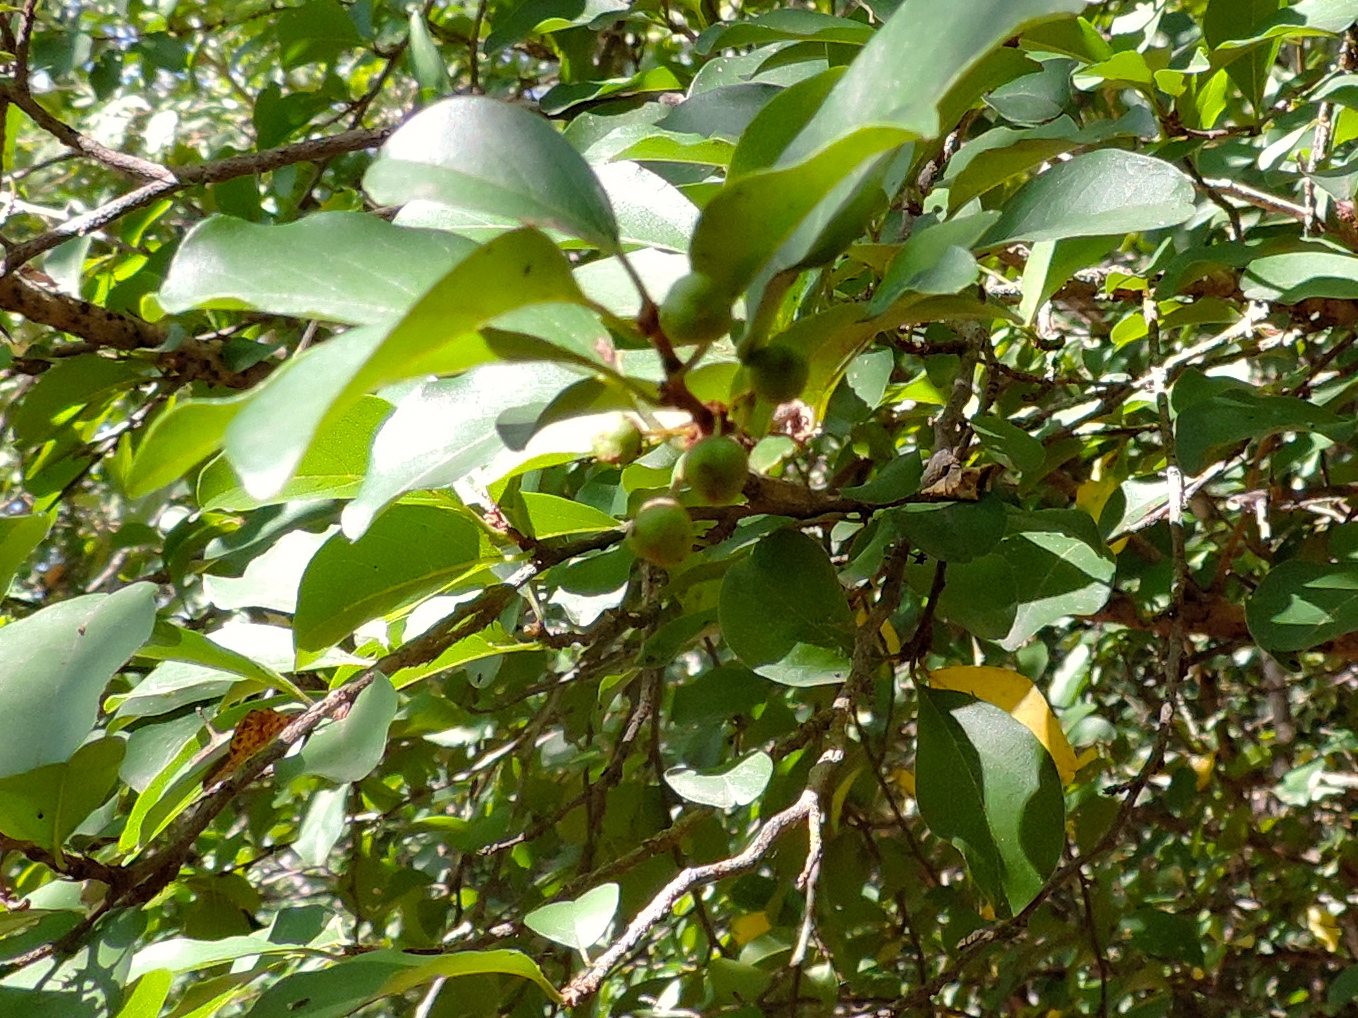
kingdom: Plantae
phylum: Tracheophyta
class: Magnoliopsida
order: Rosales
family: Rhamnaceae
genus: Colubrina
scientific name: Colubrina heteroneura
